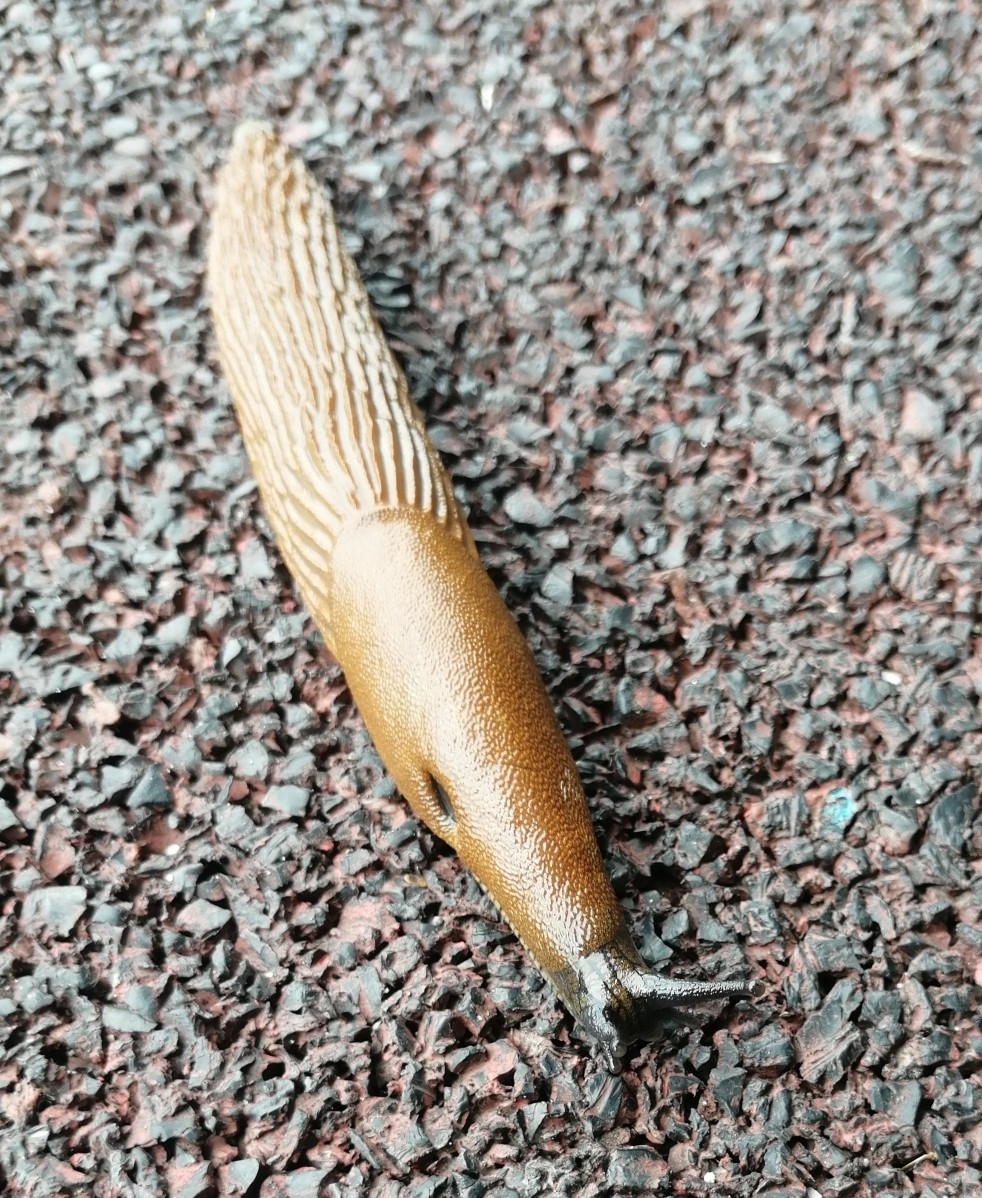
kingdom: Animalia
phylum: Mollusca
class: Gastropoda
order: Stylommatophora
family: Arionidae
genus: Arion
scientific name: Arion vulgaris
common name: Lusitanian slug
